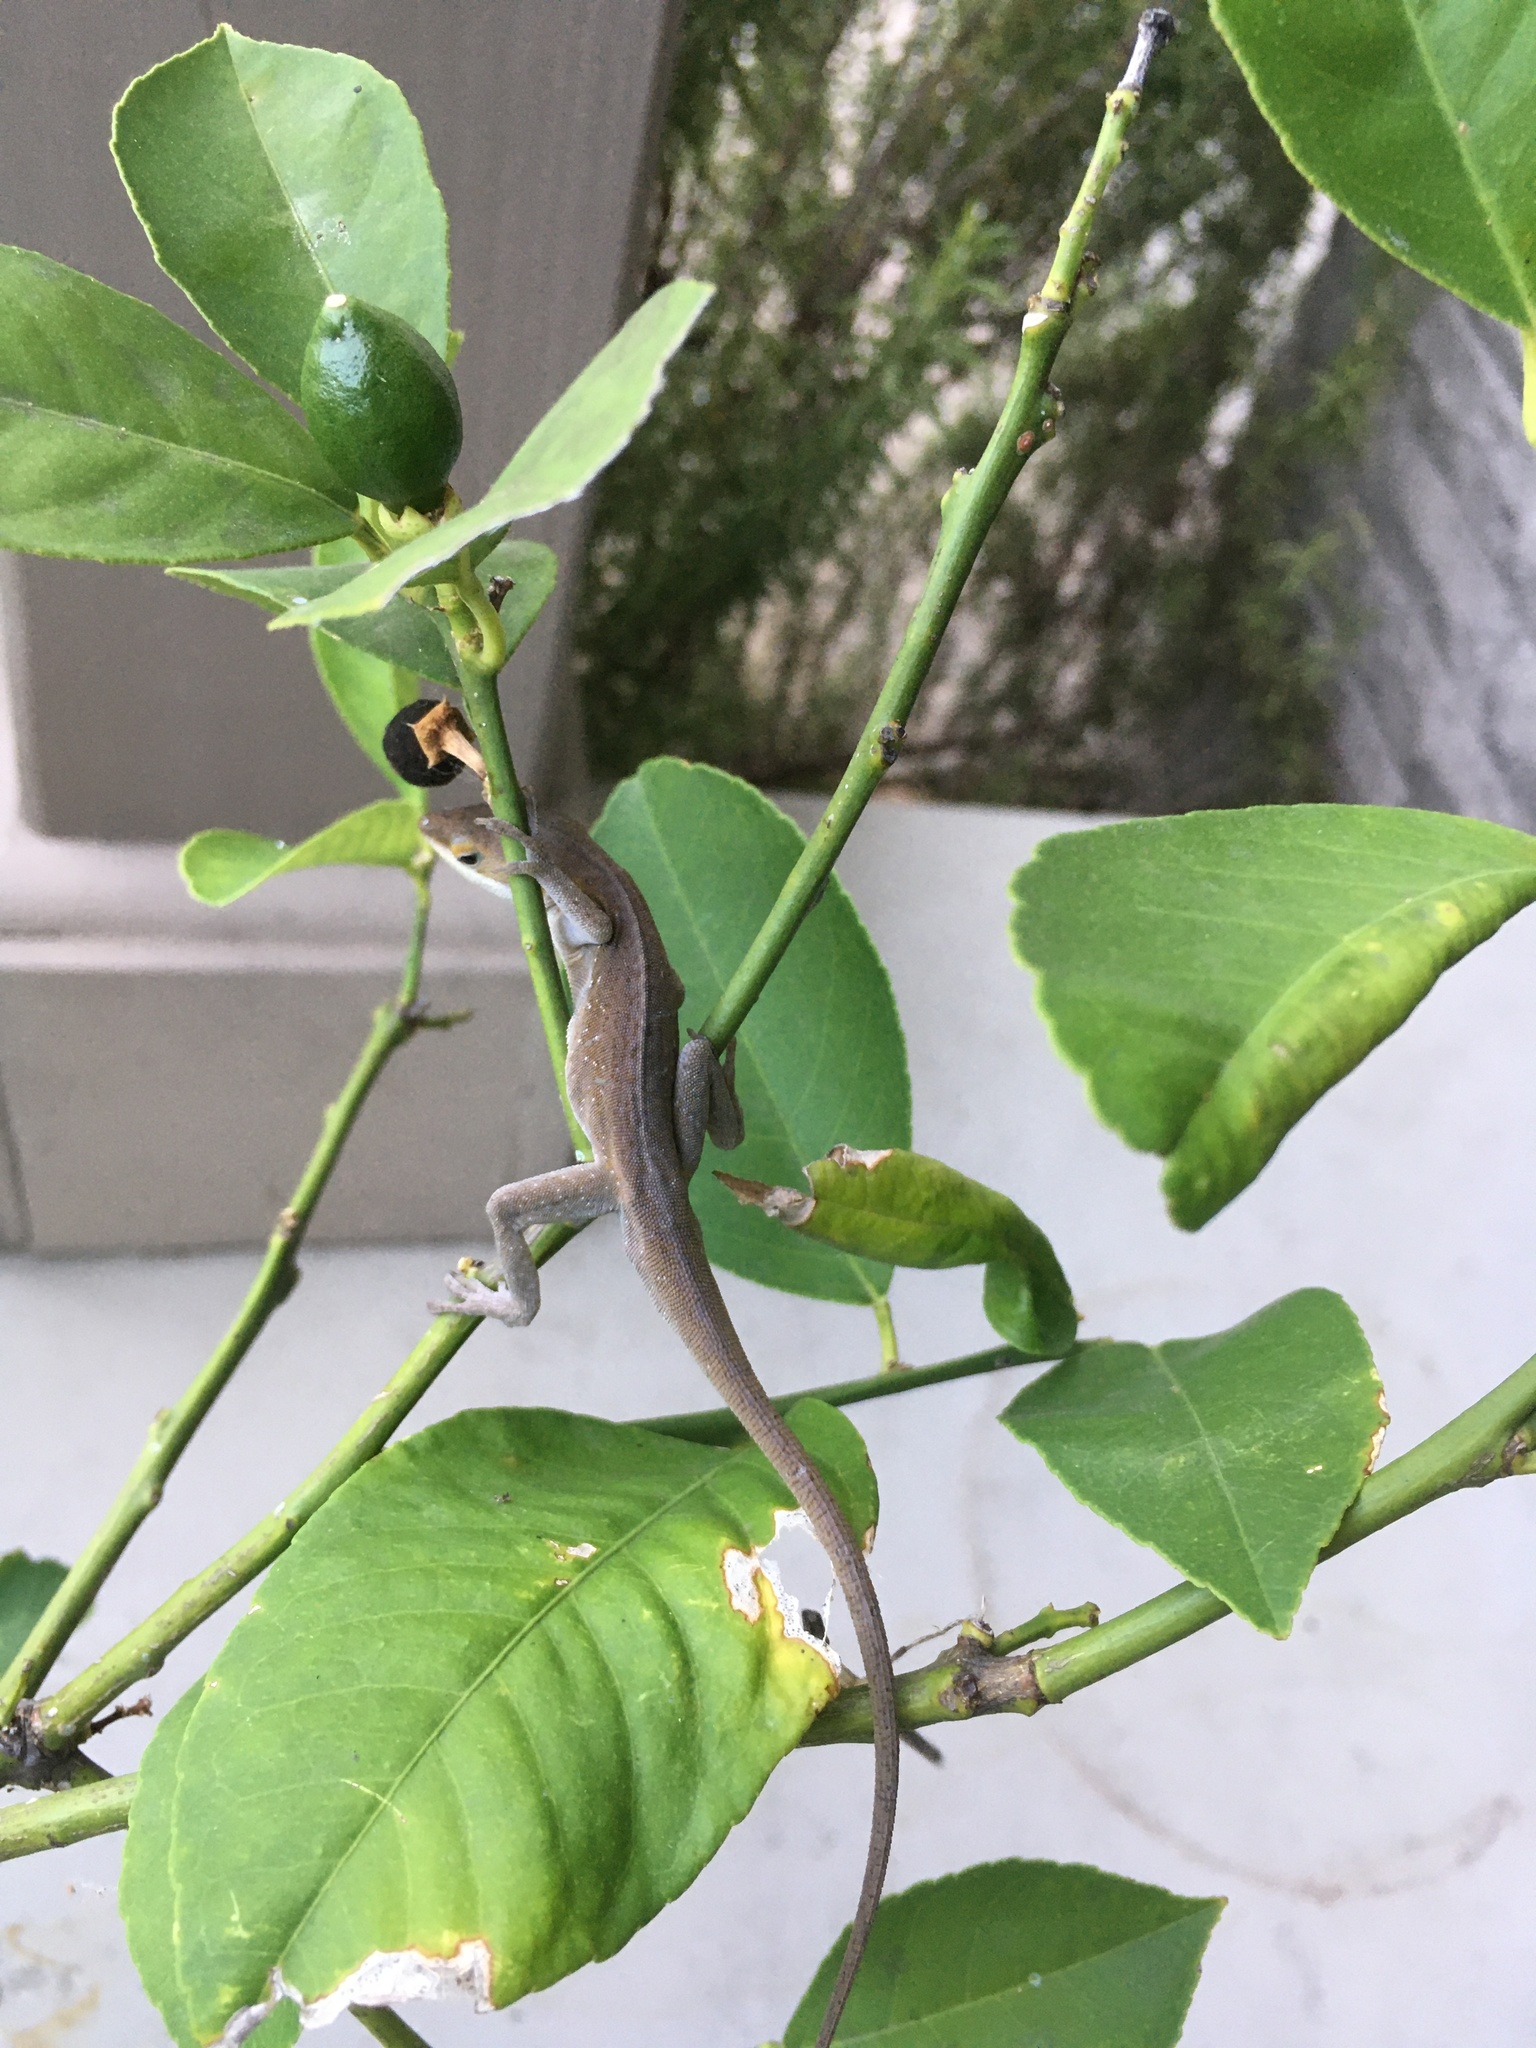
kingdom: Animalia
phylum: Chordata
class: Squamata
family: Dactyloidae
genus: Anolis
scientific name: Anolis carolinensis
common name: Green anole
